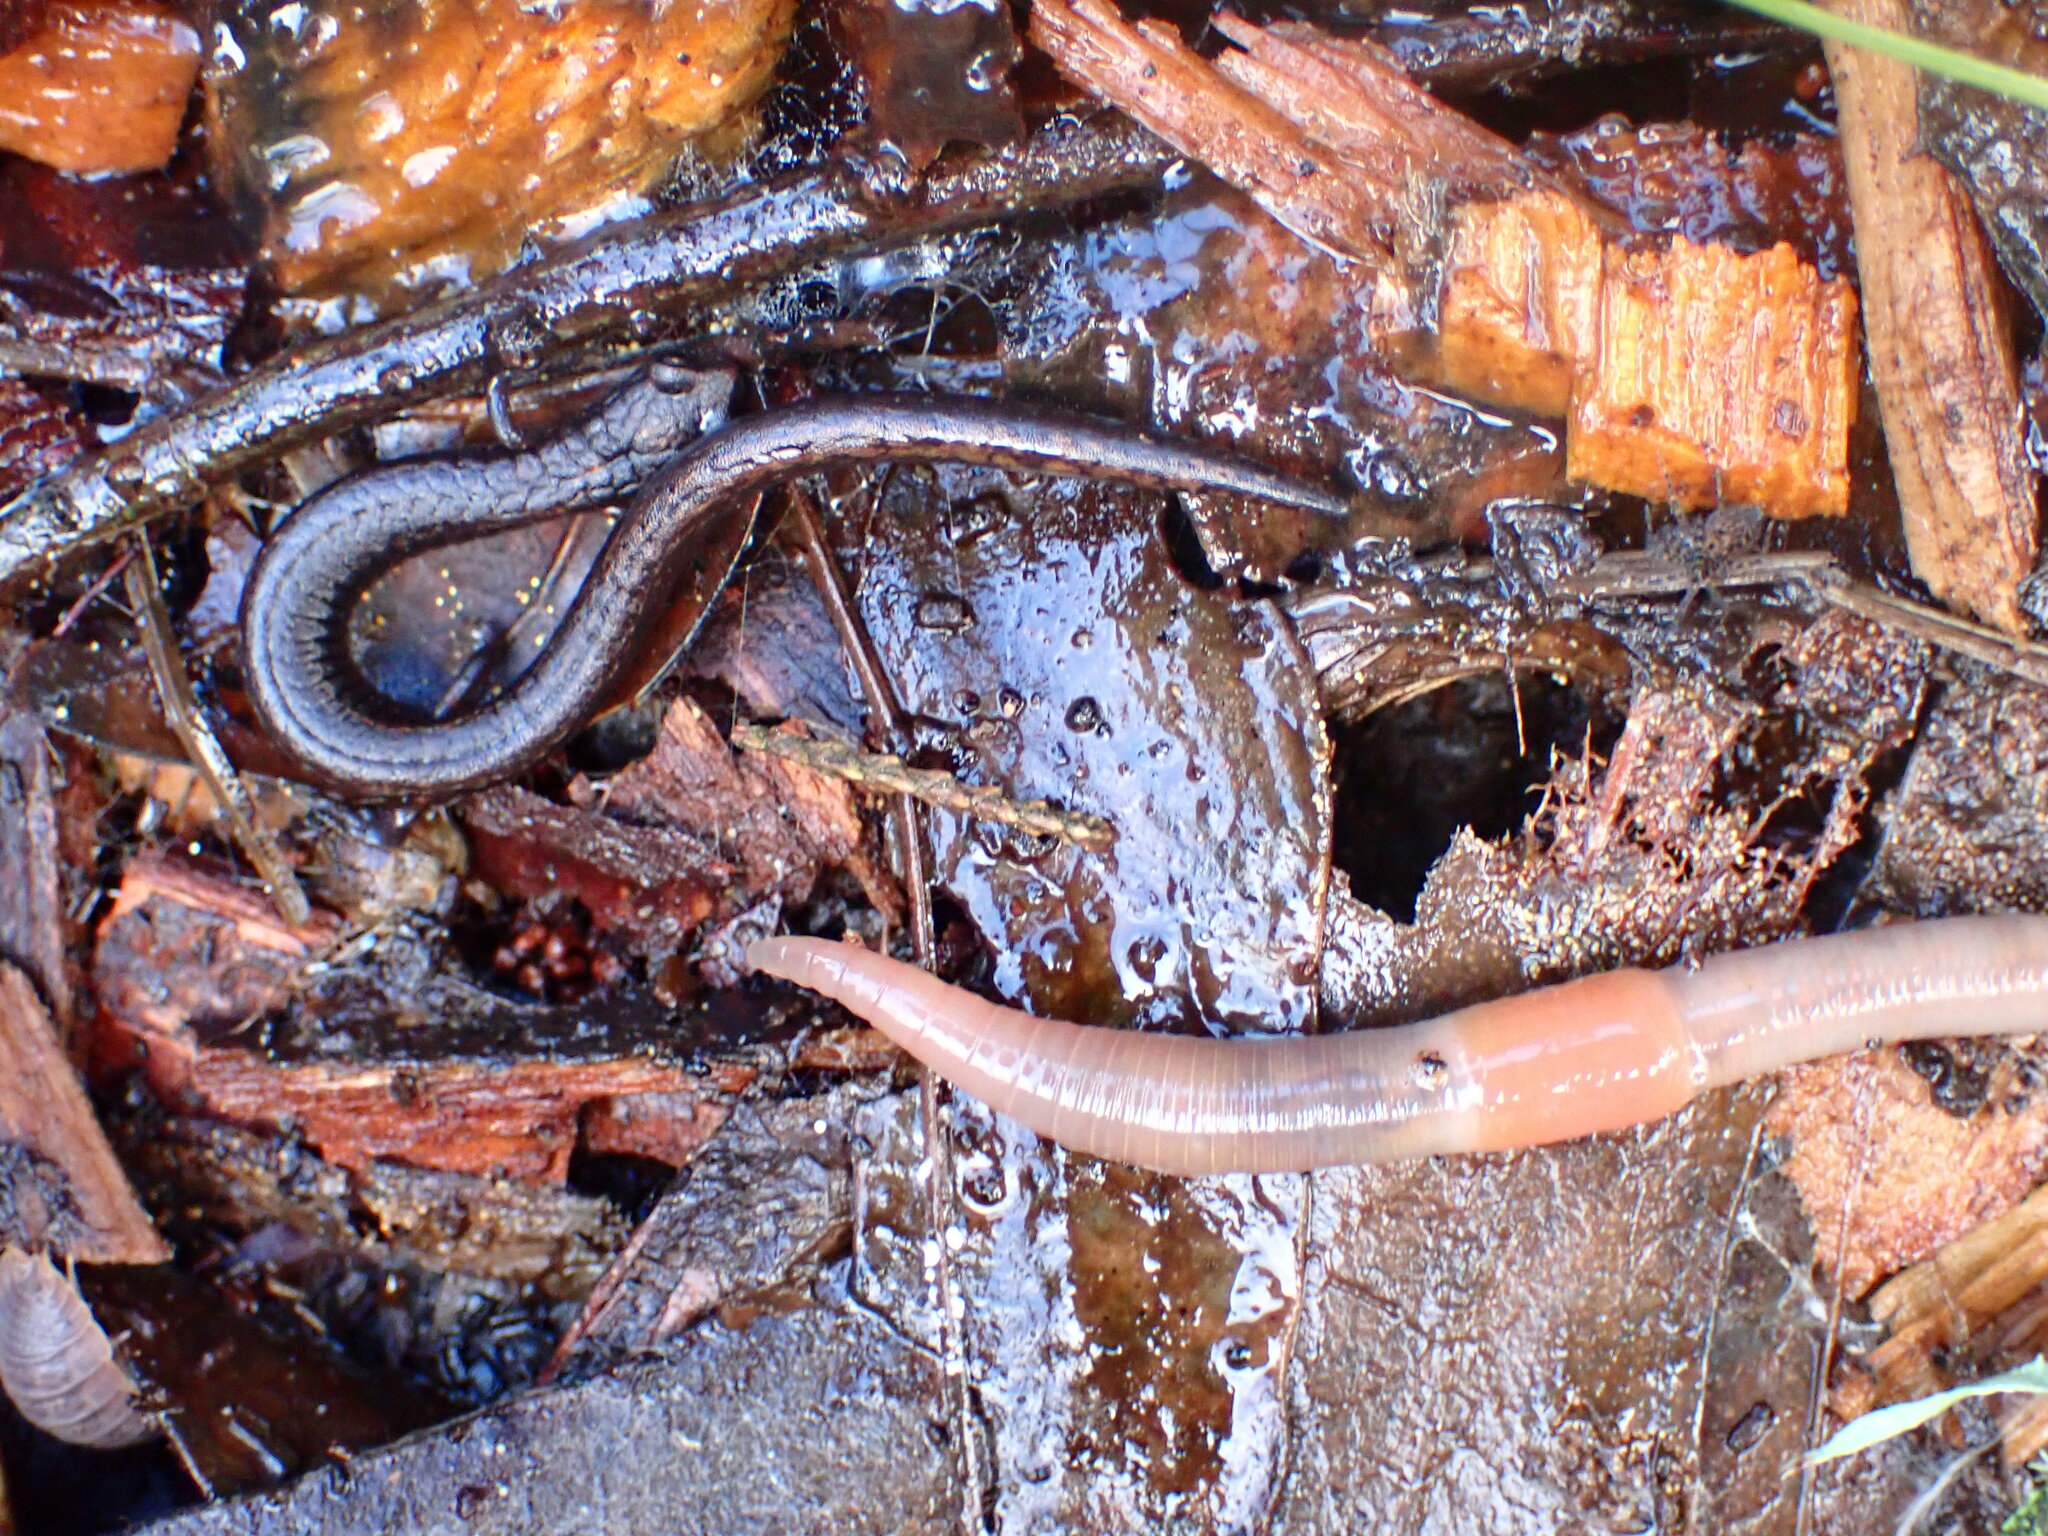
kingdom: Animalia
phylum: Chordata
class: Amphibia
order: Caudata
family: Plethodontidae
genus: Batrachoseps
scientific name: Batrachoseps attenuatus
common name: California slender salamander
